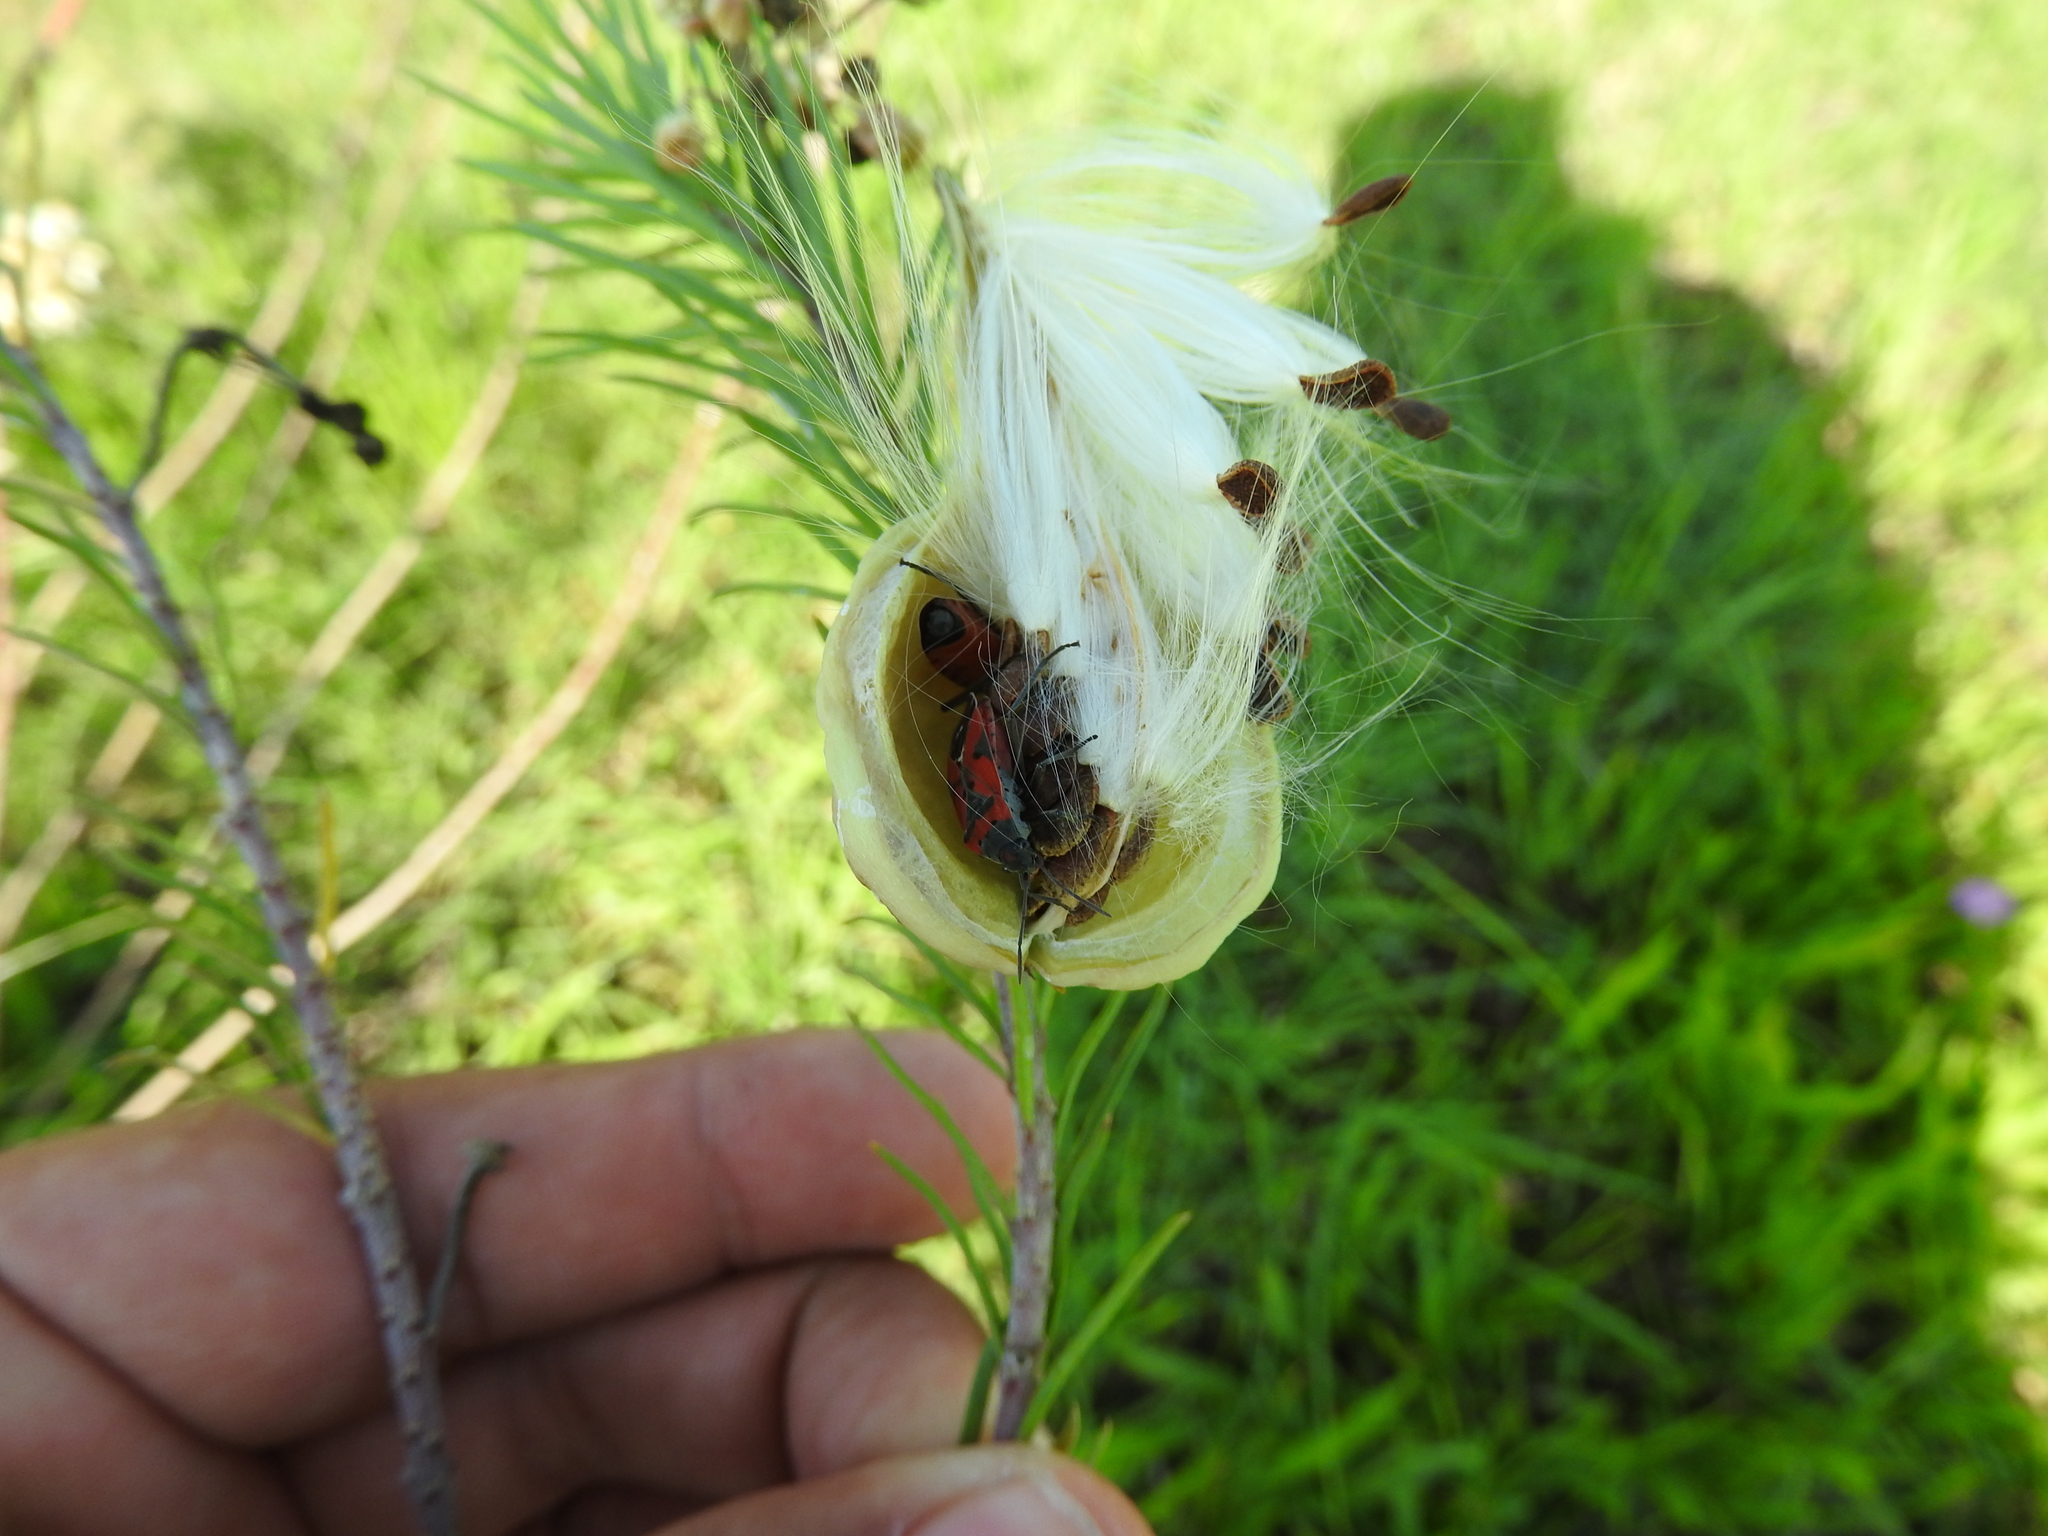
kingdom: Animalia
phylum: Arthropoda
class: Insecta
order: Hemiptera
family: Lygaeidae
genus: Lygaeus
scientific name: Lygaeus reclivatus
